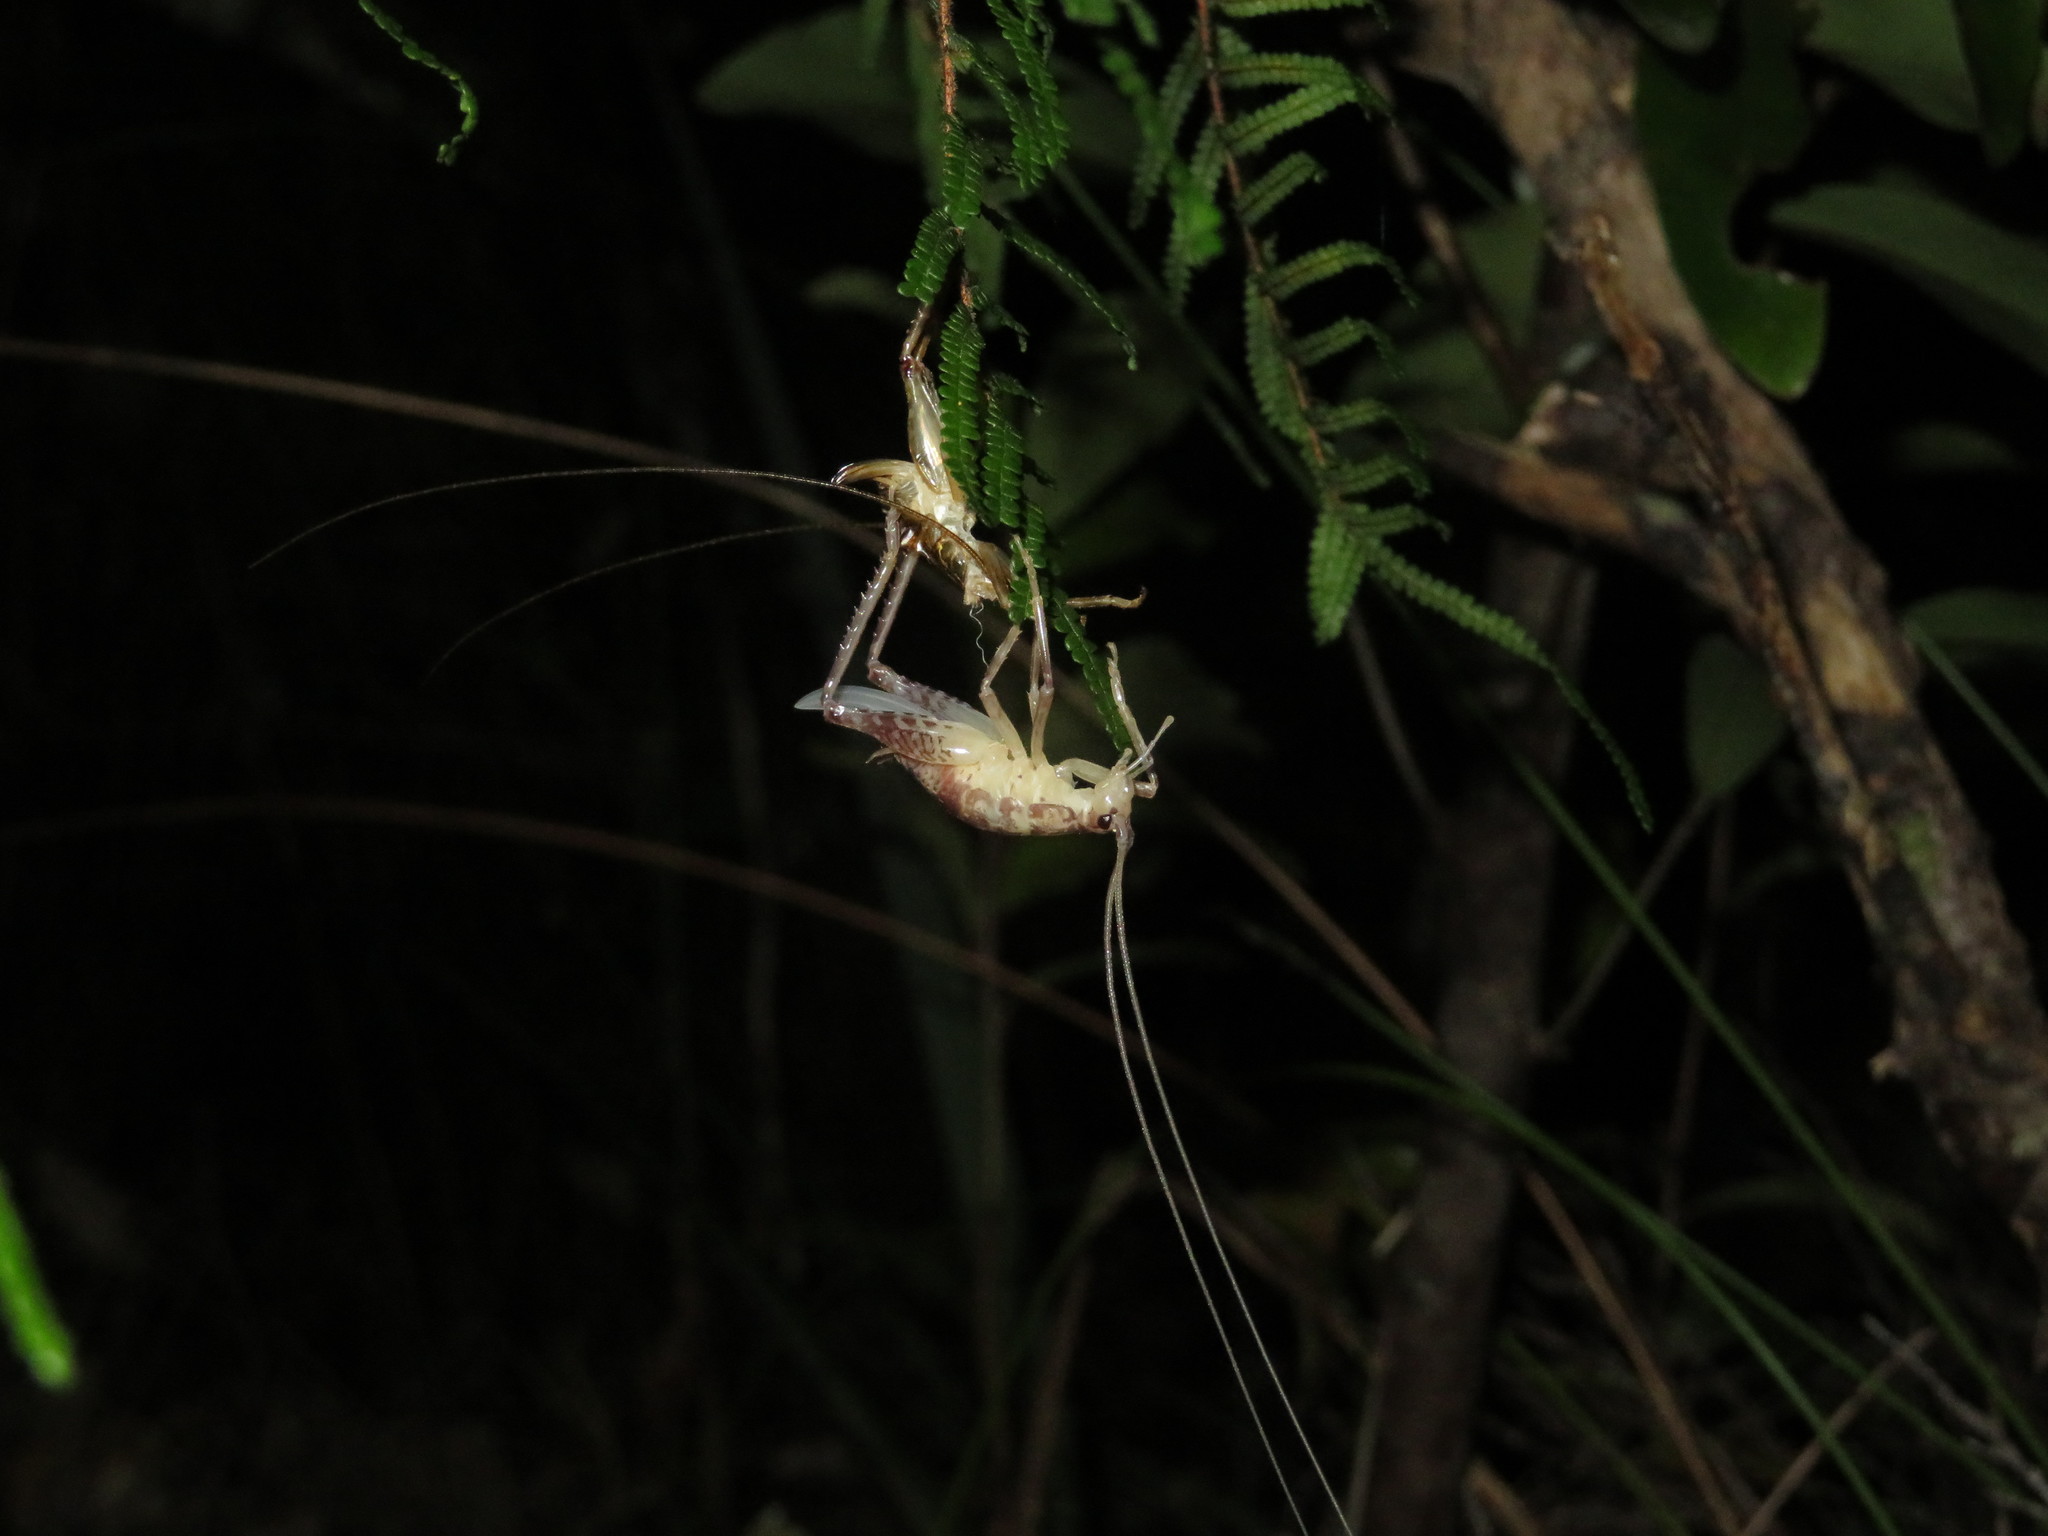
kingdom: Animalia
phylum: Arthropoda
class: Insecta
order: Orthoptera
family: Rhaphidophoridae
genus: Talitropsis
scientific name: Talitropsis sedilloti
